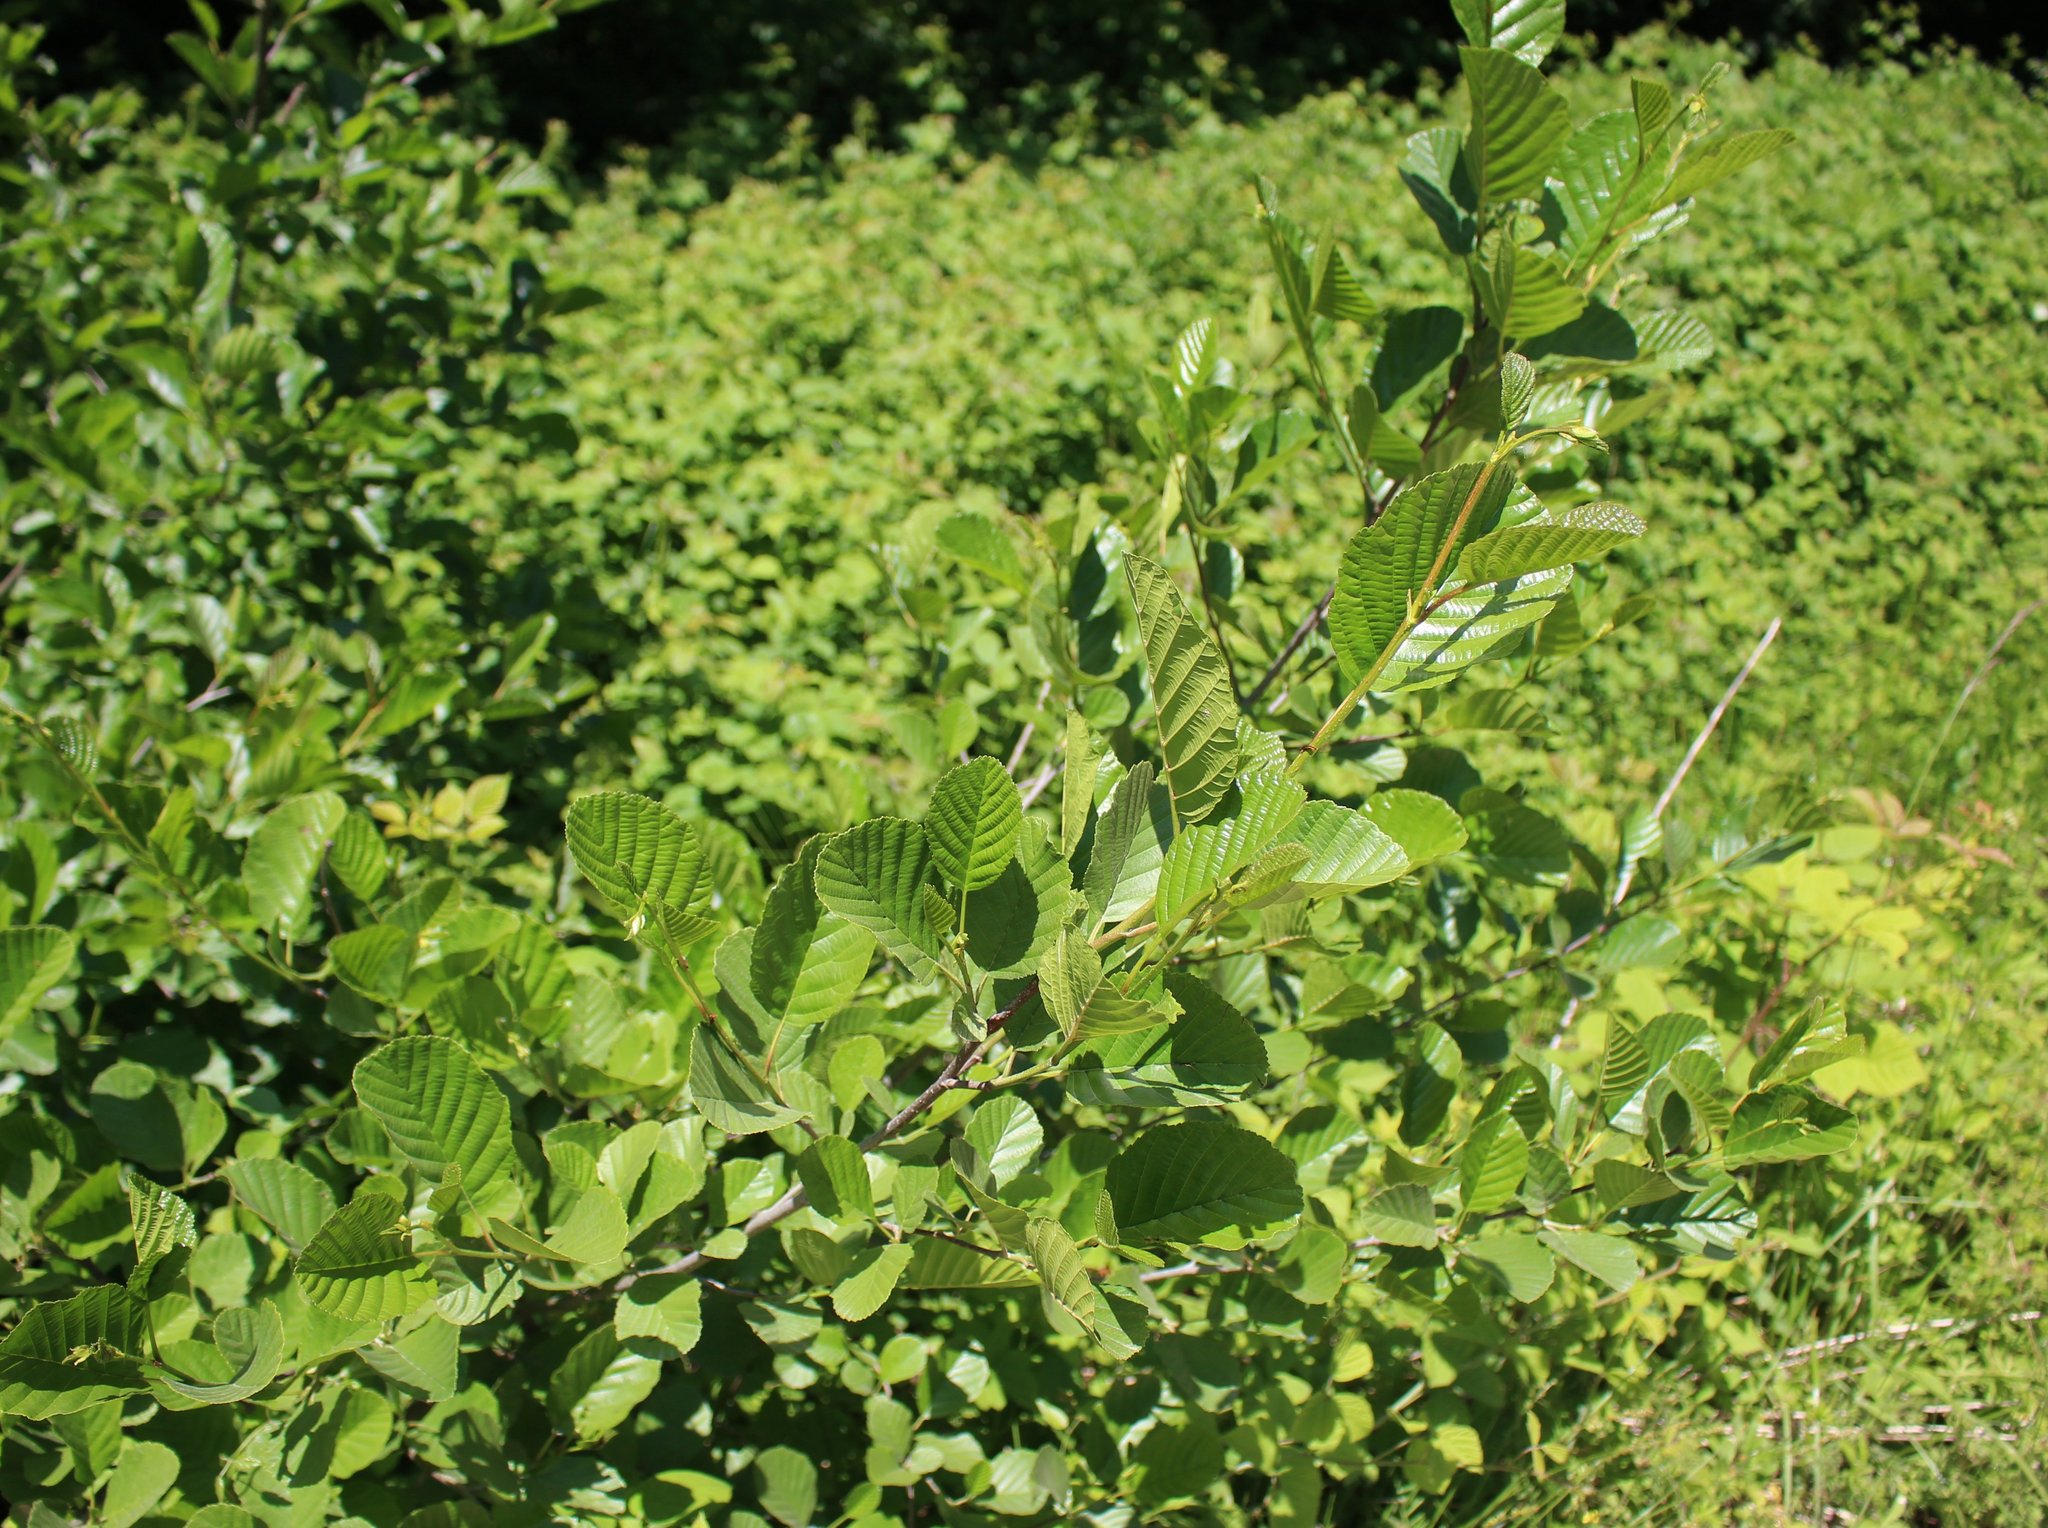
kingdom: Plantae
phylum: Tracheophyta
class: Magnoliopsida
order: Fagales
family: Betulaceae
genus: Alnus
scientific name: Alnus glutinosa
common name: Black alder
